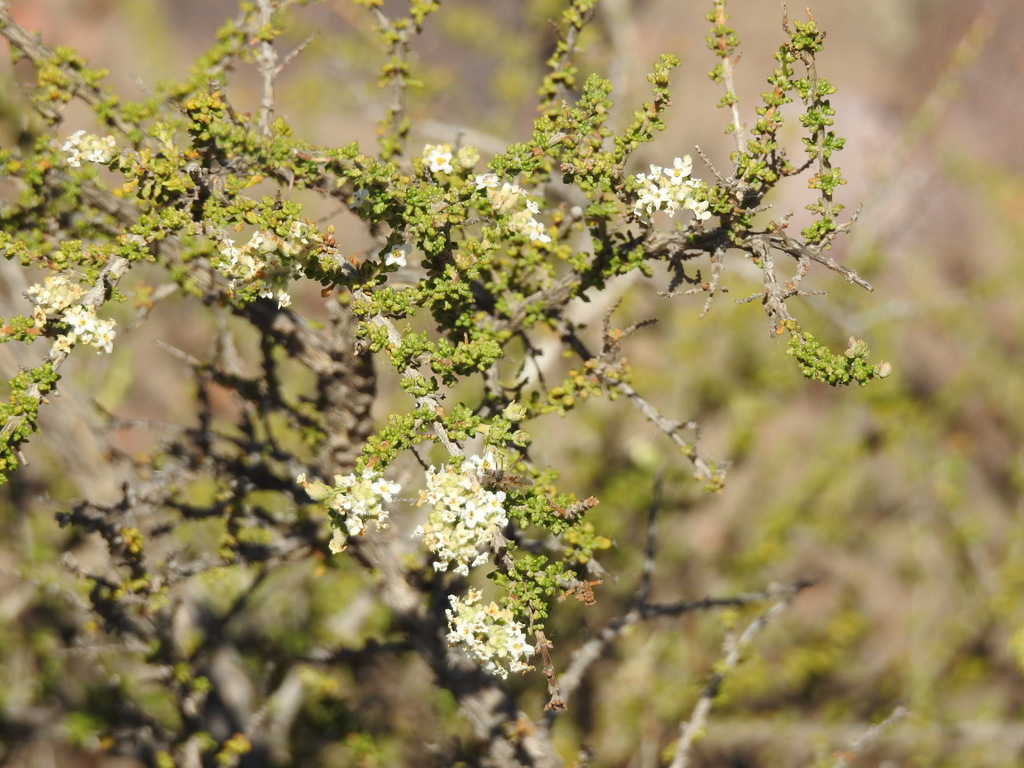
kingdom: Plantae
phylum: Tracheophyta
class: Magnoliopsida
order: Lamiales
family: Verbenaceae
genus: Acantholippia
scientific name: Acantholippia seriphioides
